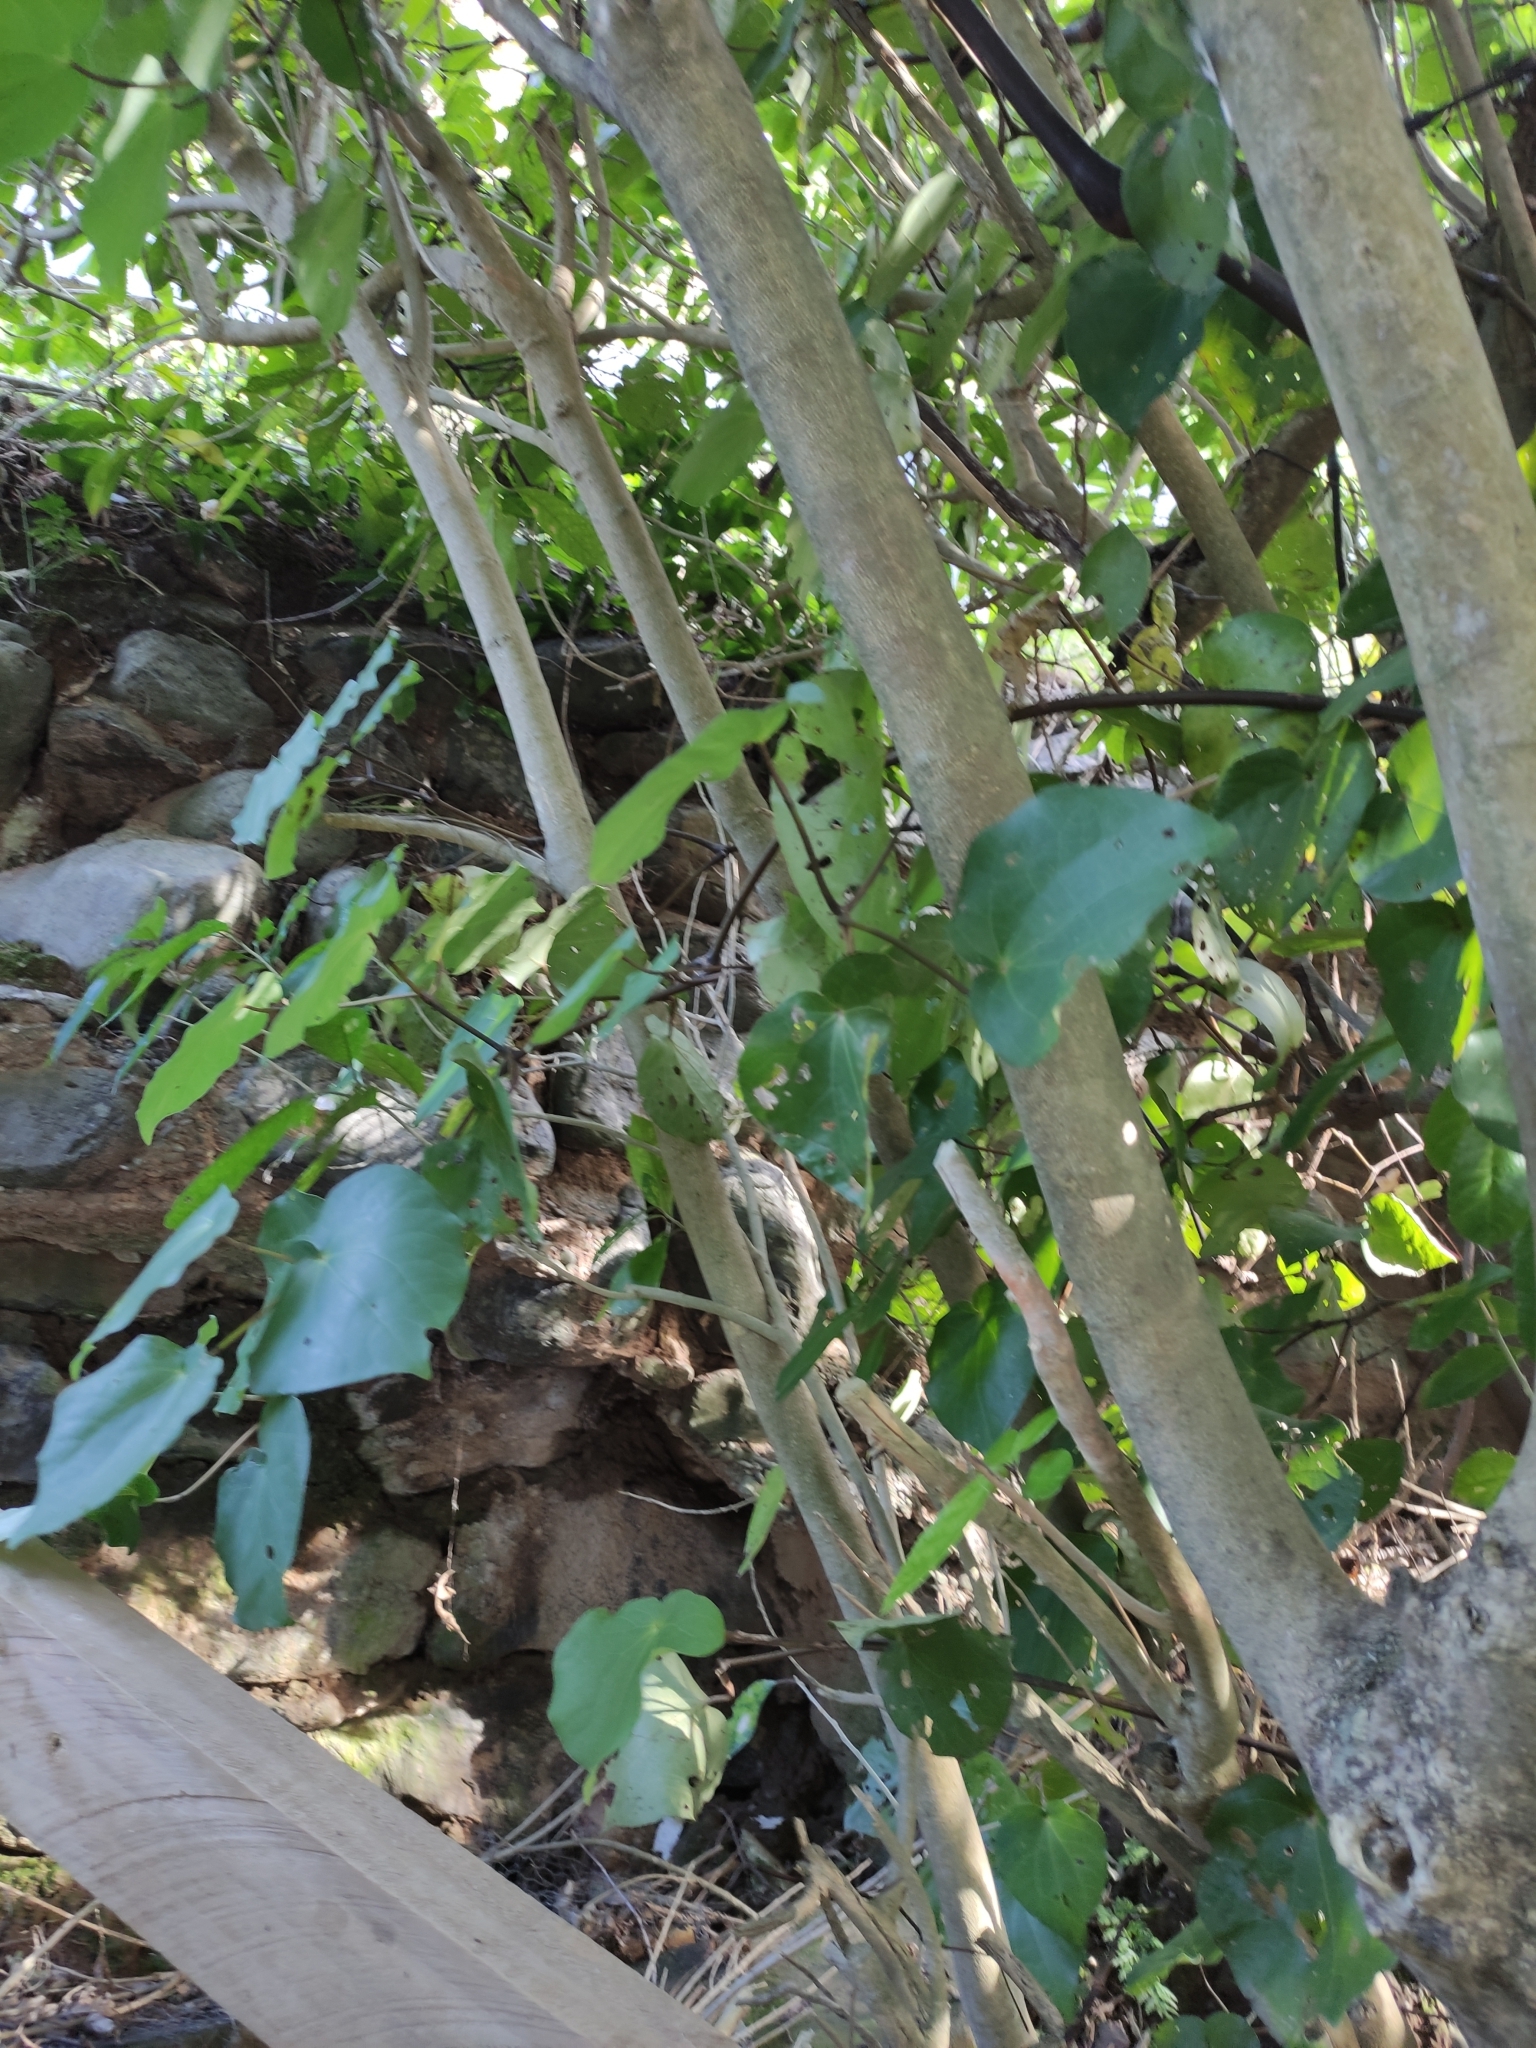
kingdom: Plantae
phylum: Tracheophyta
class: Magnoliopsida
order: Piperales
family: Piperaceae
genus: Macropiper
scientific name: Macropiper excelsum
